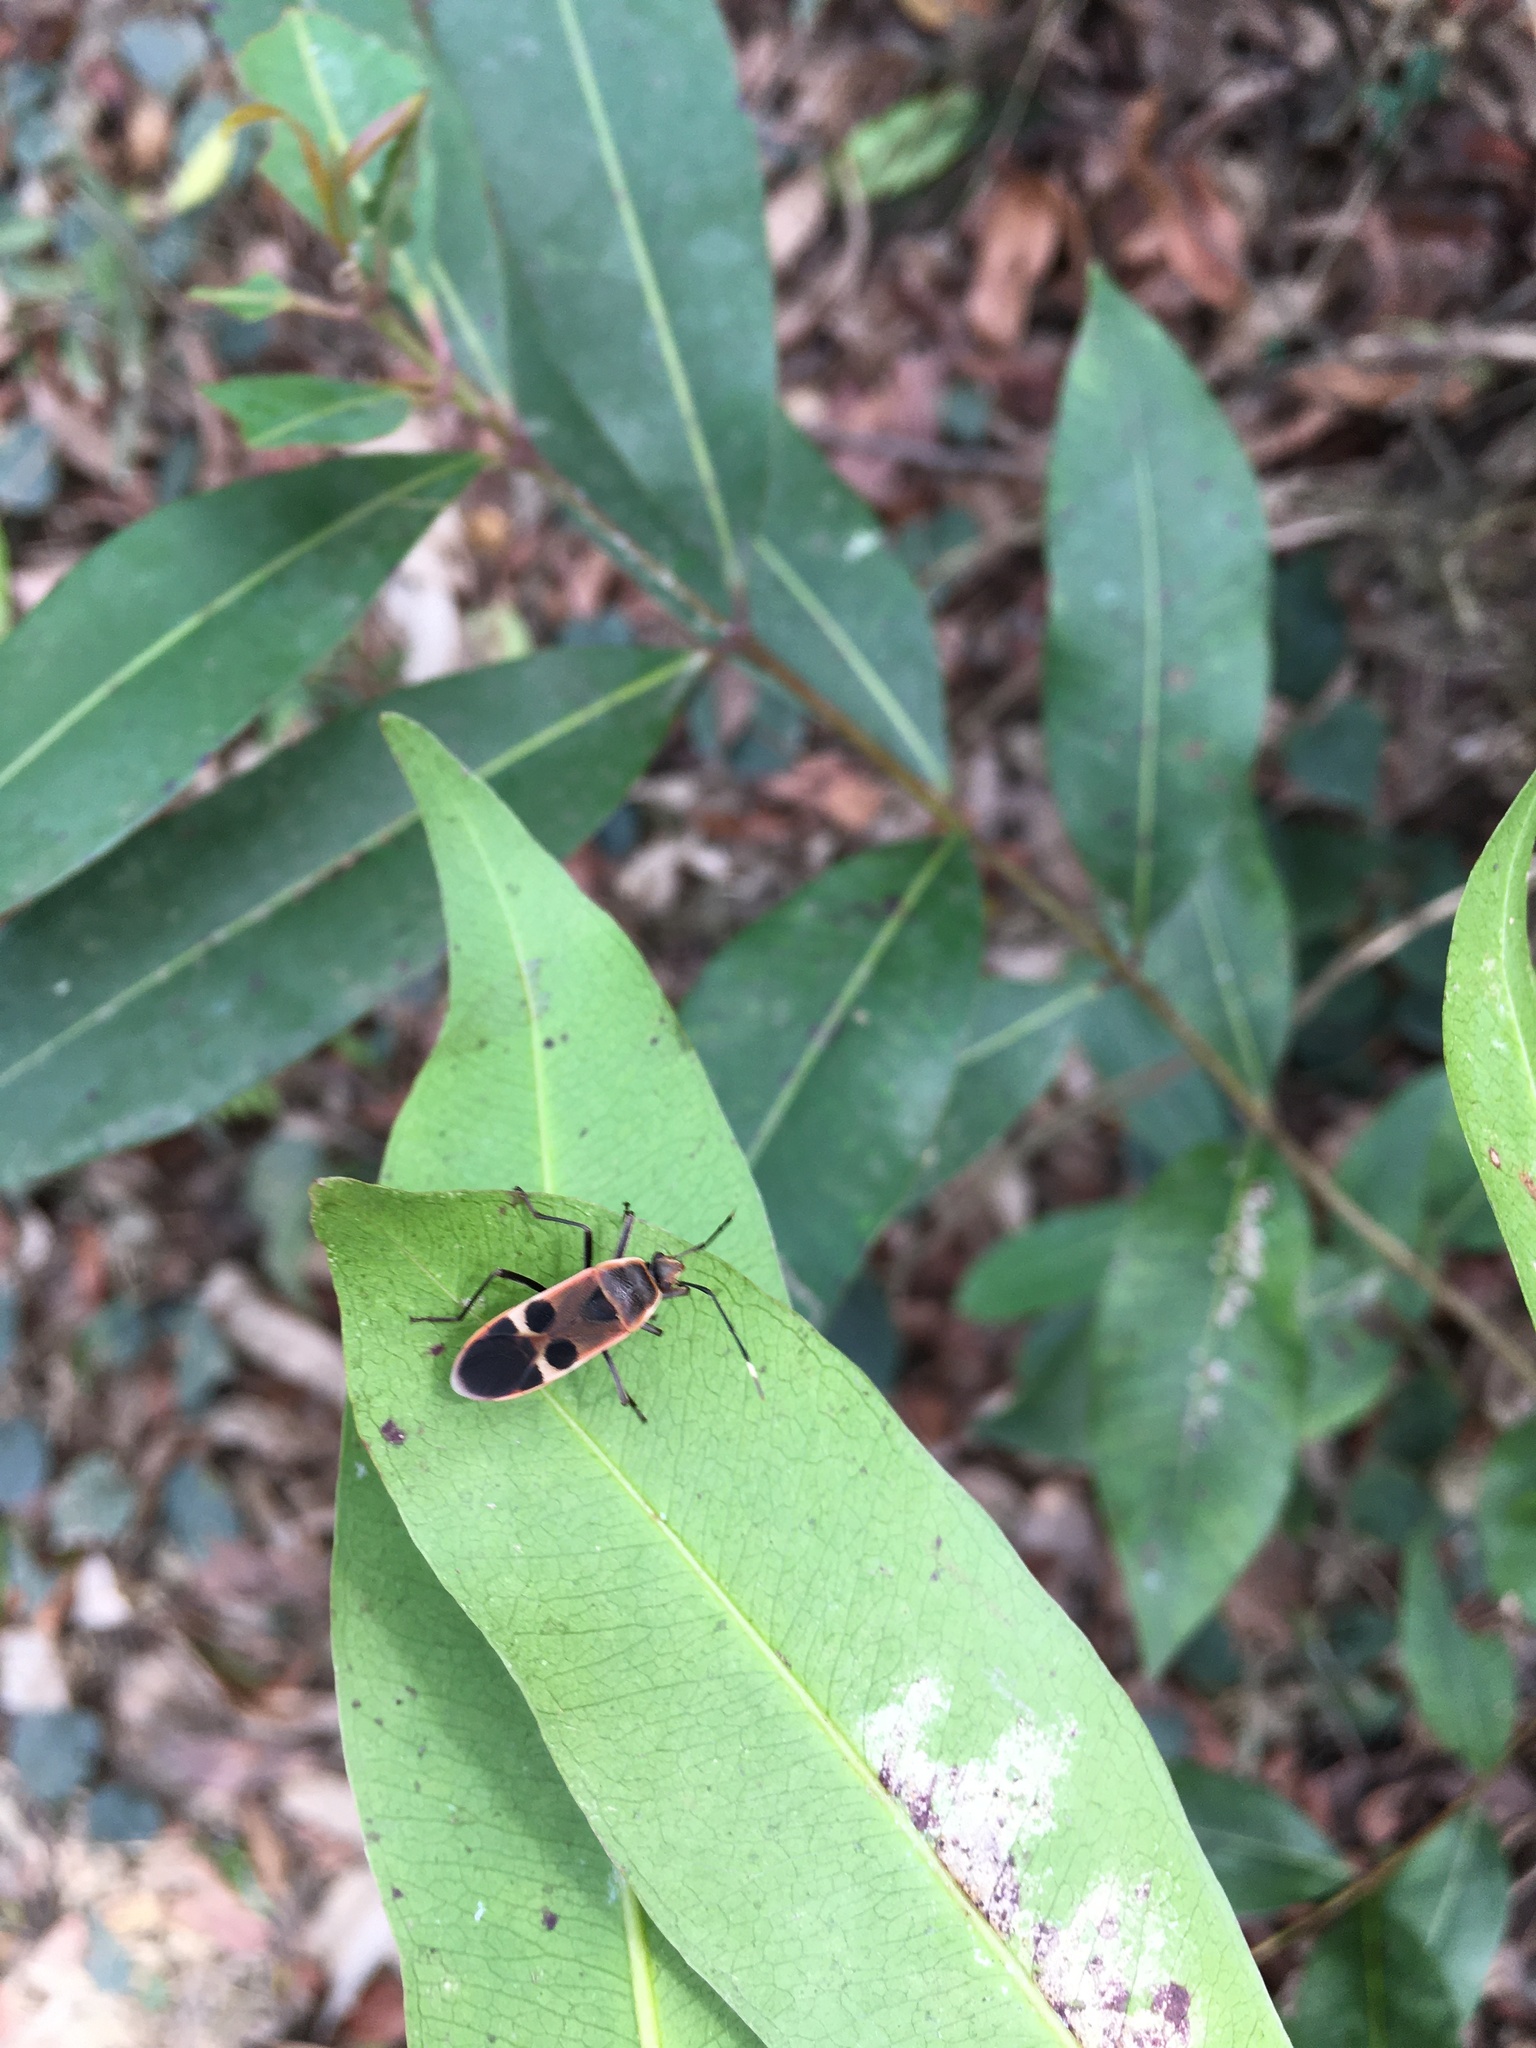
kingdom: Animalia
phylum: Arthropoda
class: Insecta
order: Hemiptera
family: Largidae
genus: Physopelta
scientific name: Physopelta gutta
